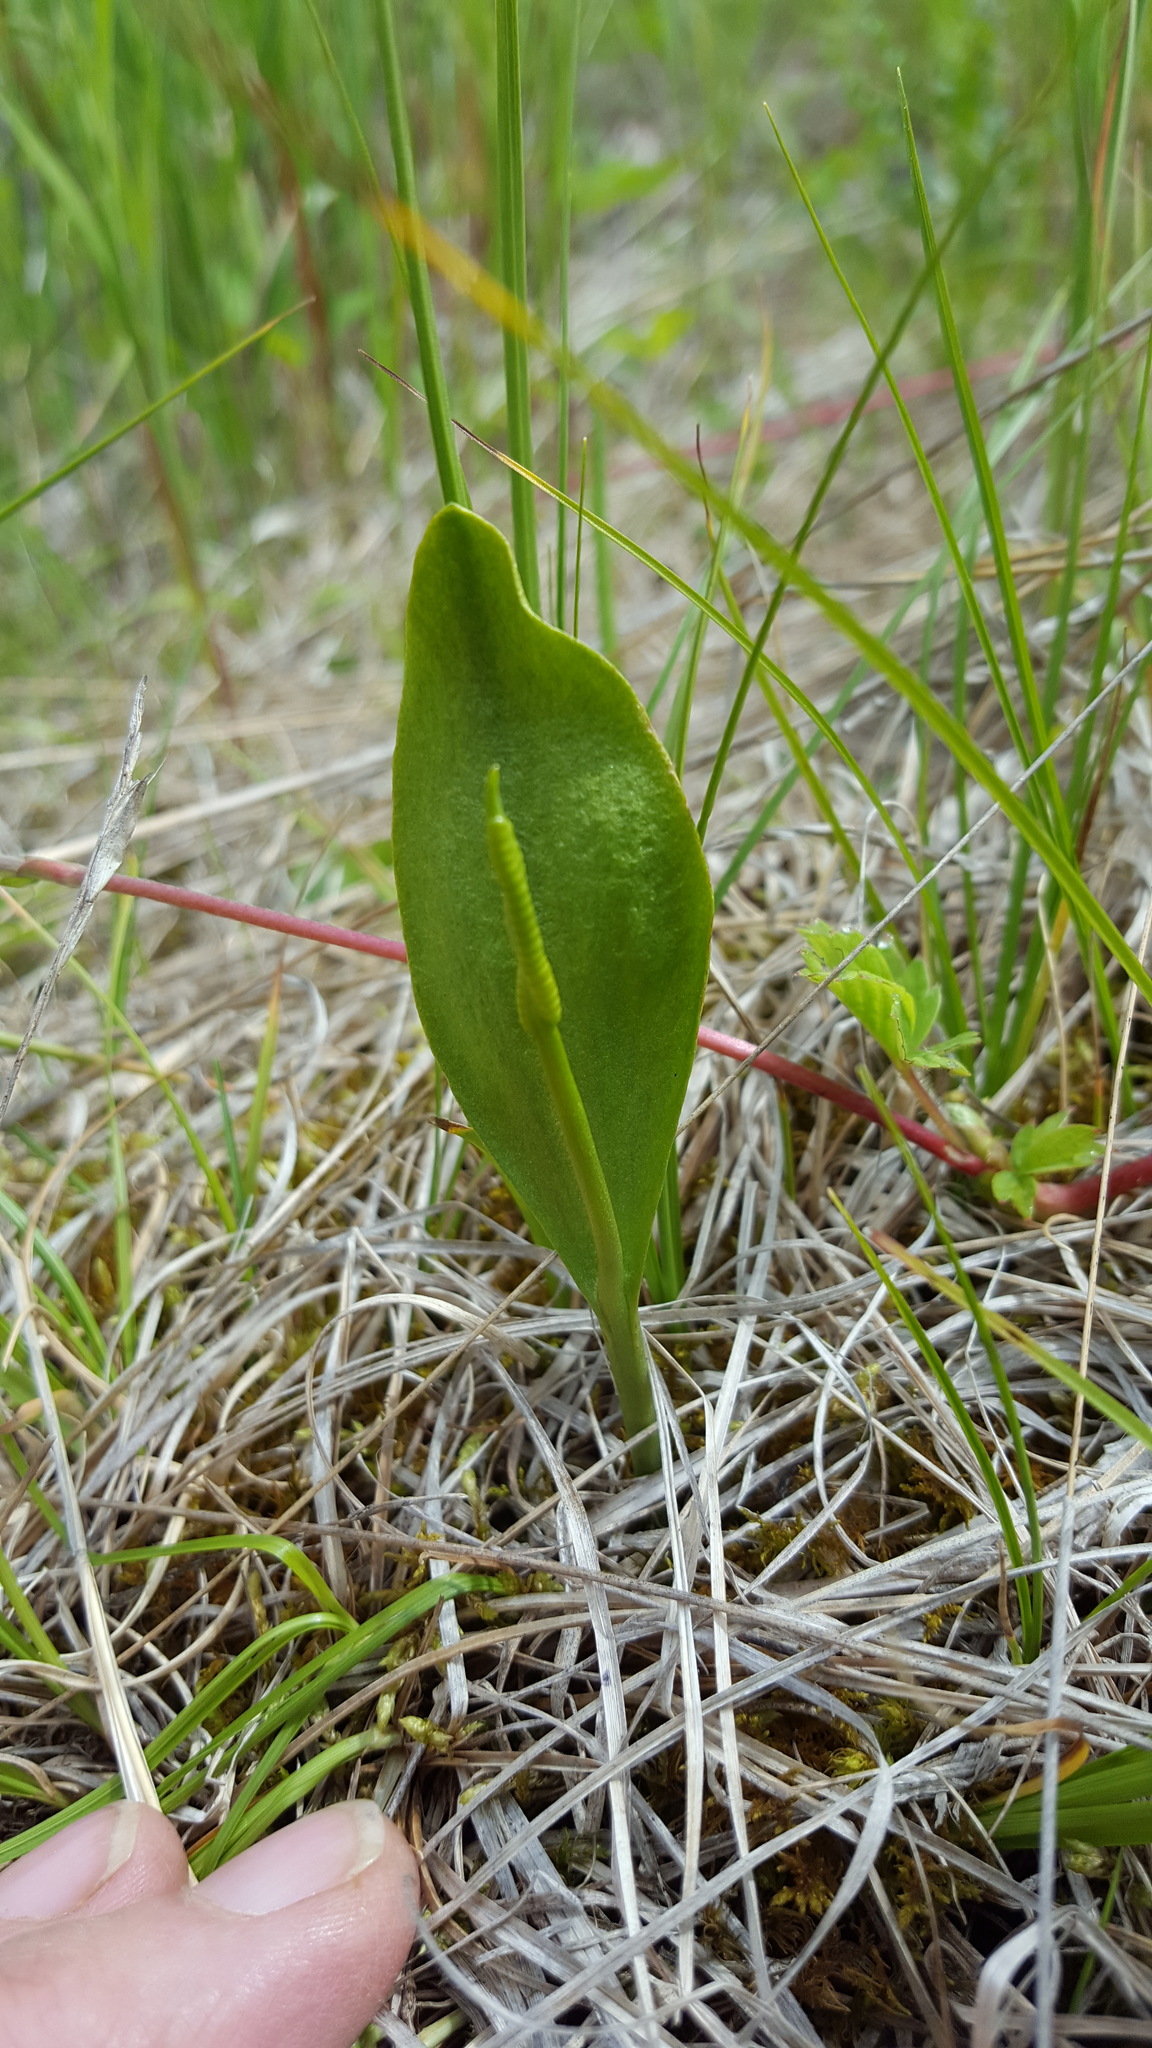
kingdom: Plantae
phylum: Tracheophyta
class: Polypodiopsida
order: Ophioglossales
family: Ophioglossaceae
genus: Ophioglossum
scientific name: Ophioglossum pusillum
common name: Northern adder's-tongue
